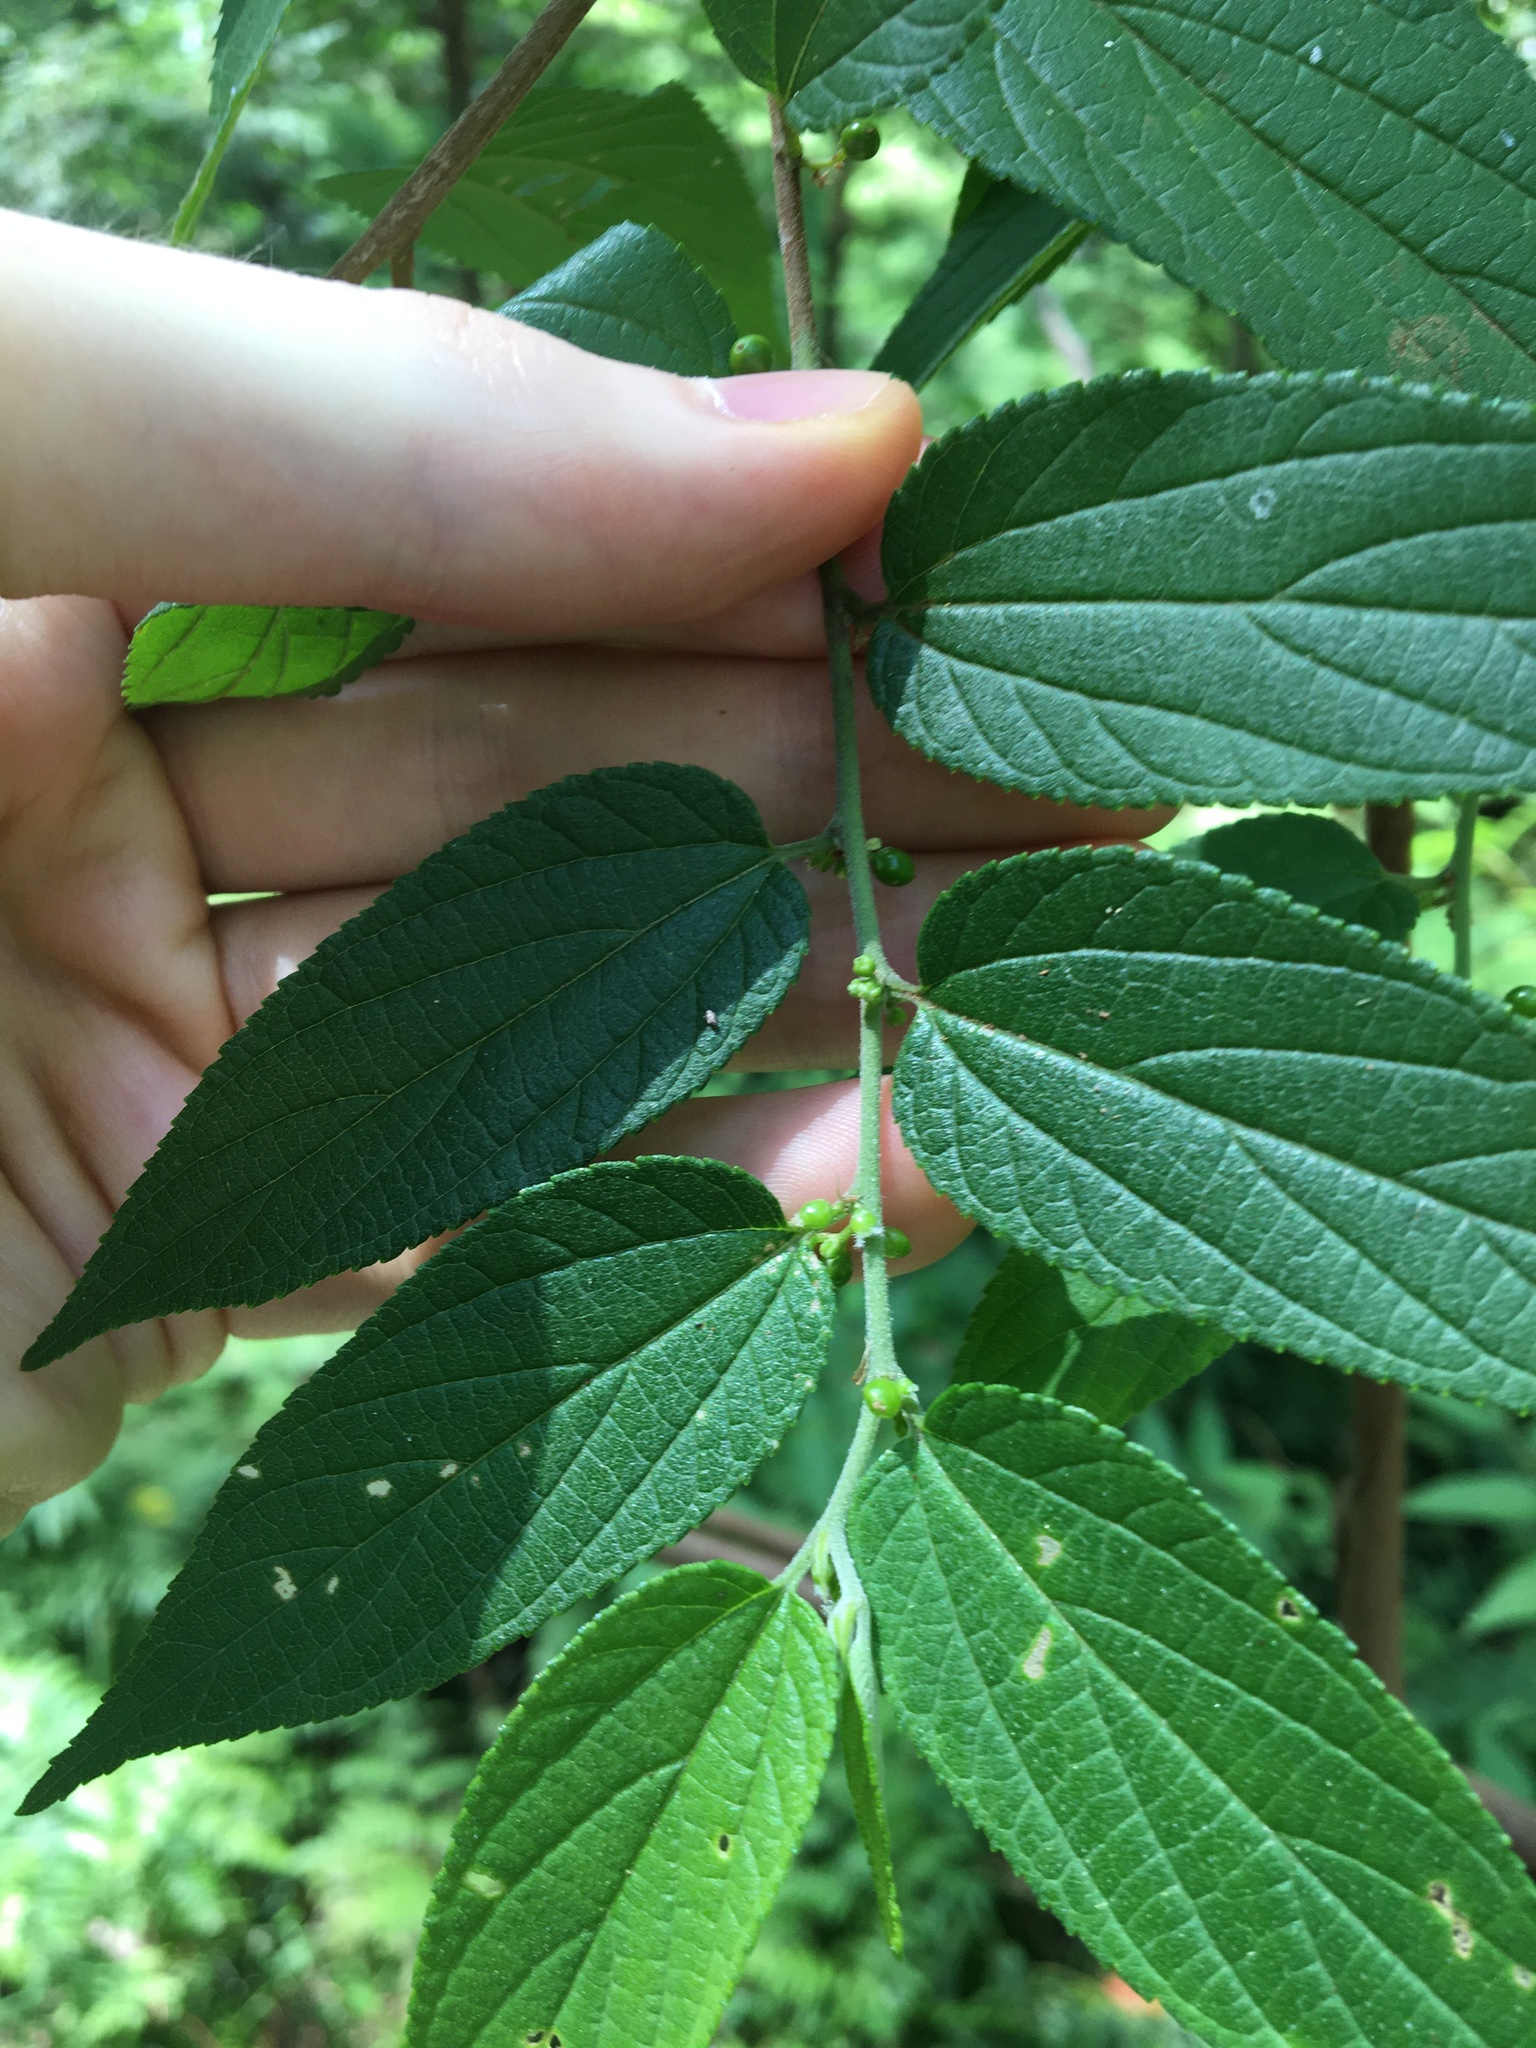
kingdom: Plantae
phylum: Tracheophyta
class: Magnoliopsida
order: Rosales
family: Cannabaceae
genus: Trema
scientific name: Trema tomentosum
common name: Peach-leaf-poisonbush
